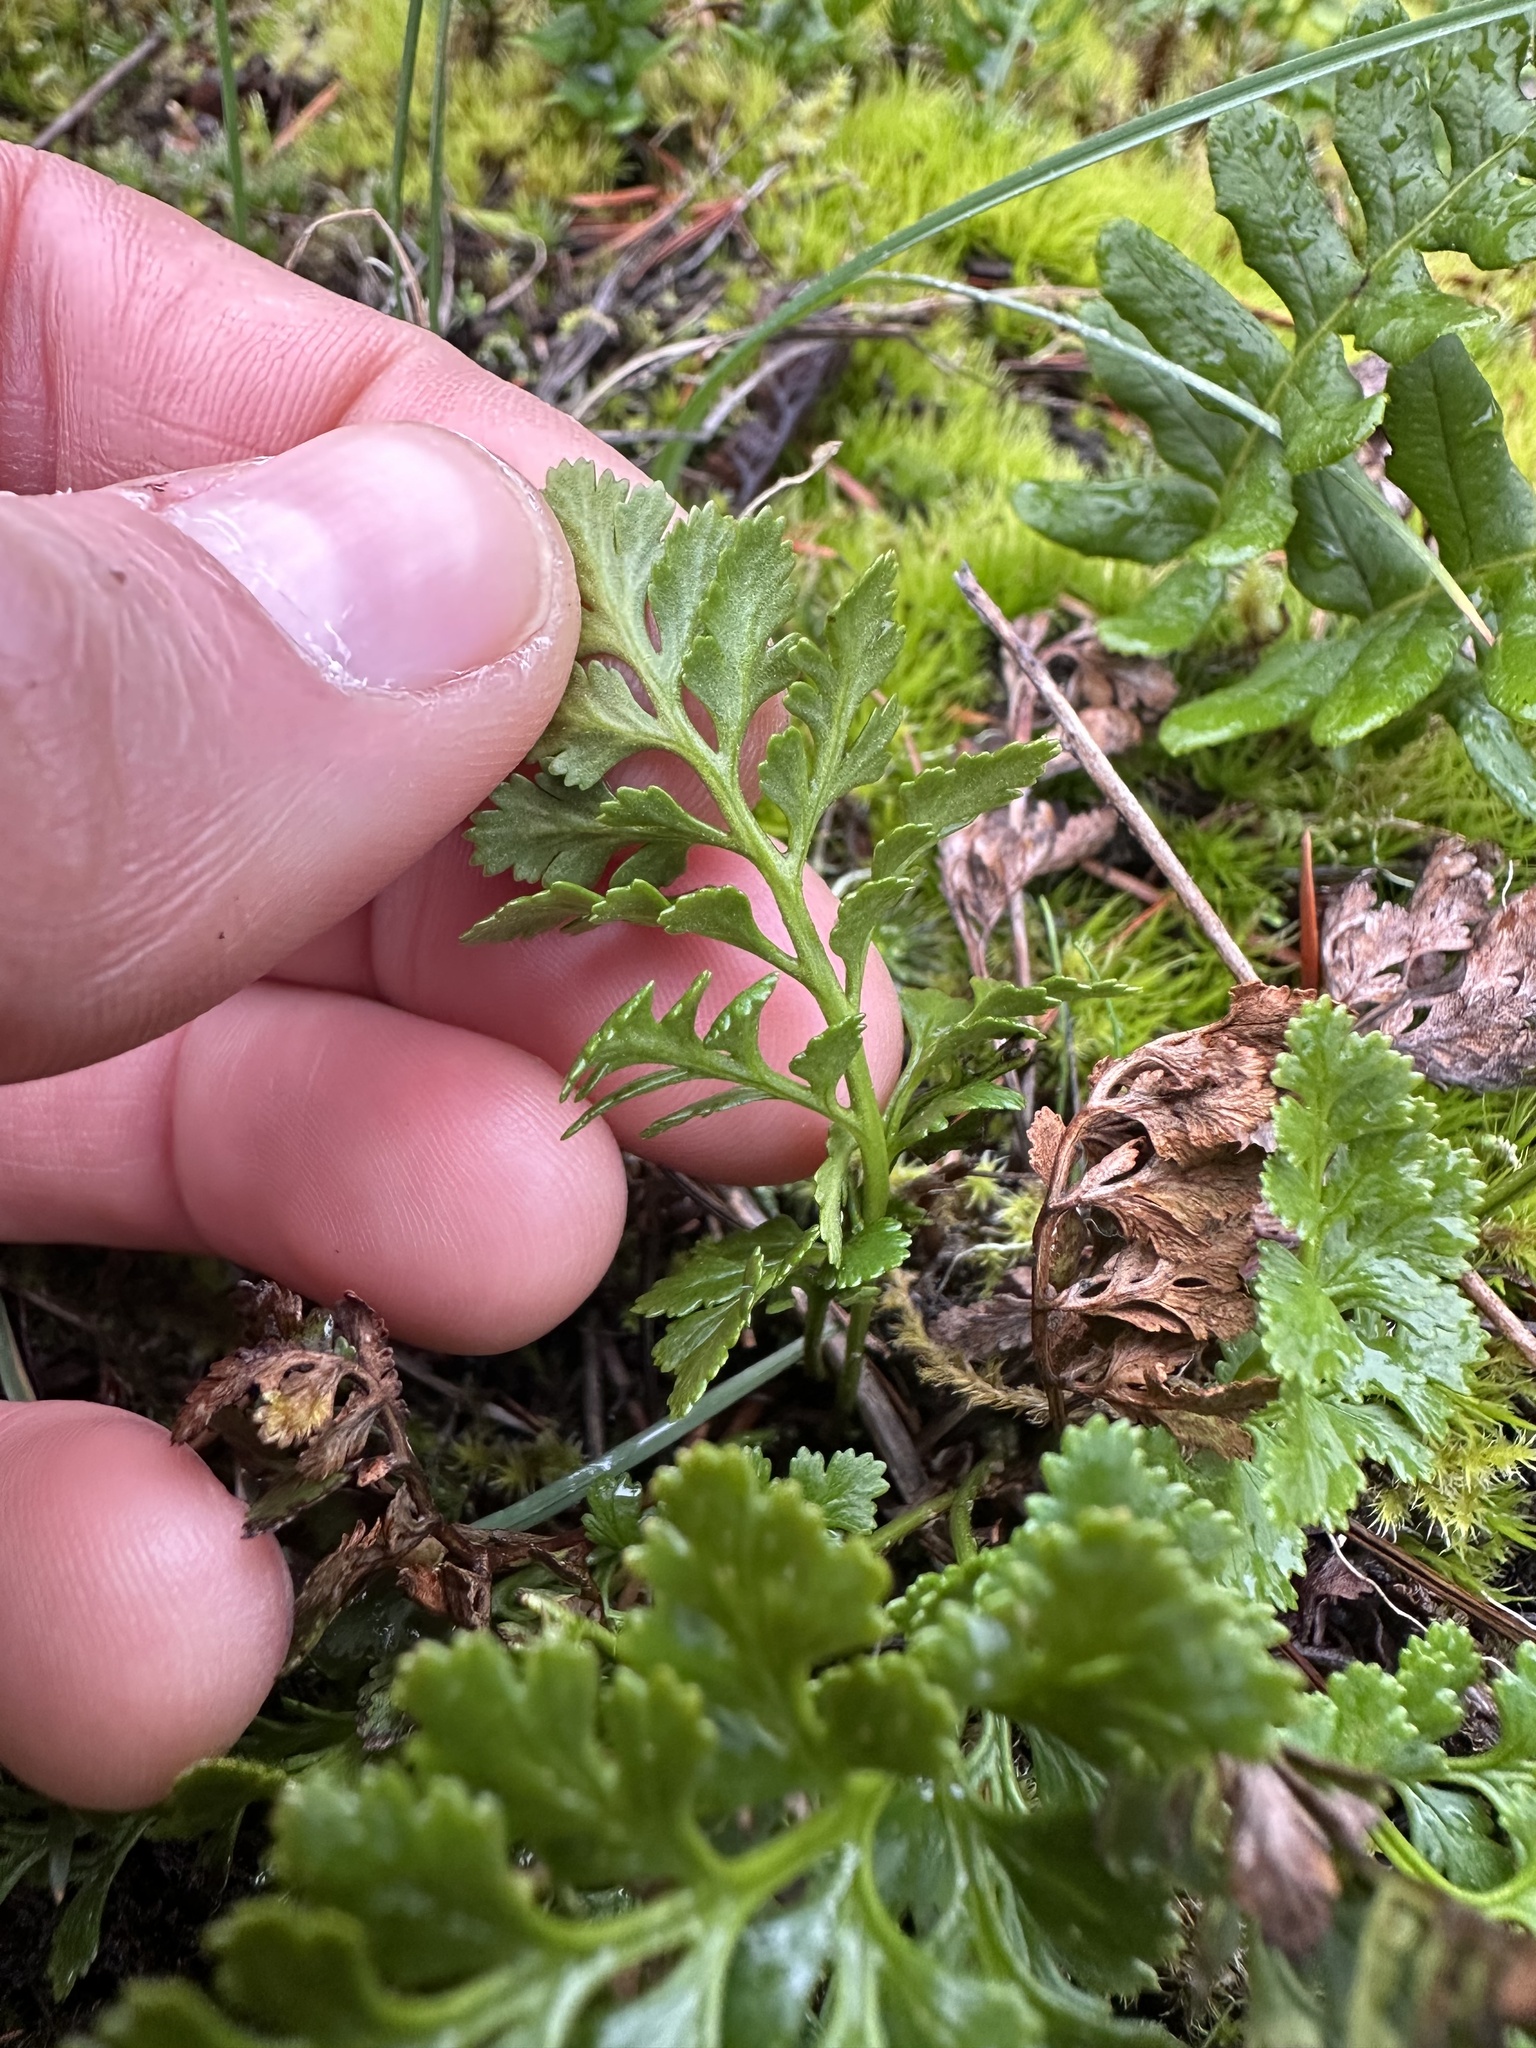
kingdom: Plantae
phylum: Tracheophyta
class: Polypodiopsida
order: Polypodiales
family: Pteridaceae
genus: Cryptogramma
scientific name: Cryptogramma acrostichoides
